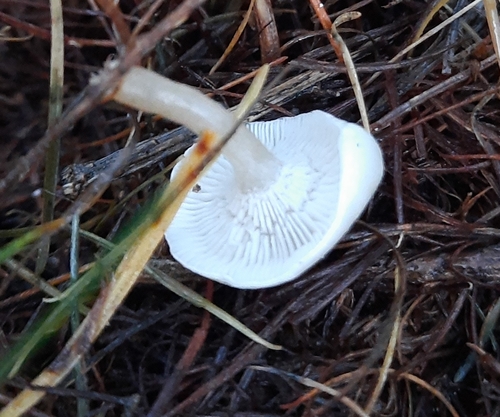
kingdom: Fungi
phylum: Basidiomycota
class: Agaricomycetes
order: Agaricales
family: Tricholomataceae
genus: Clitocybe
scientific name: Clitocybe
